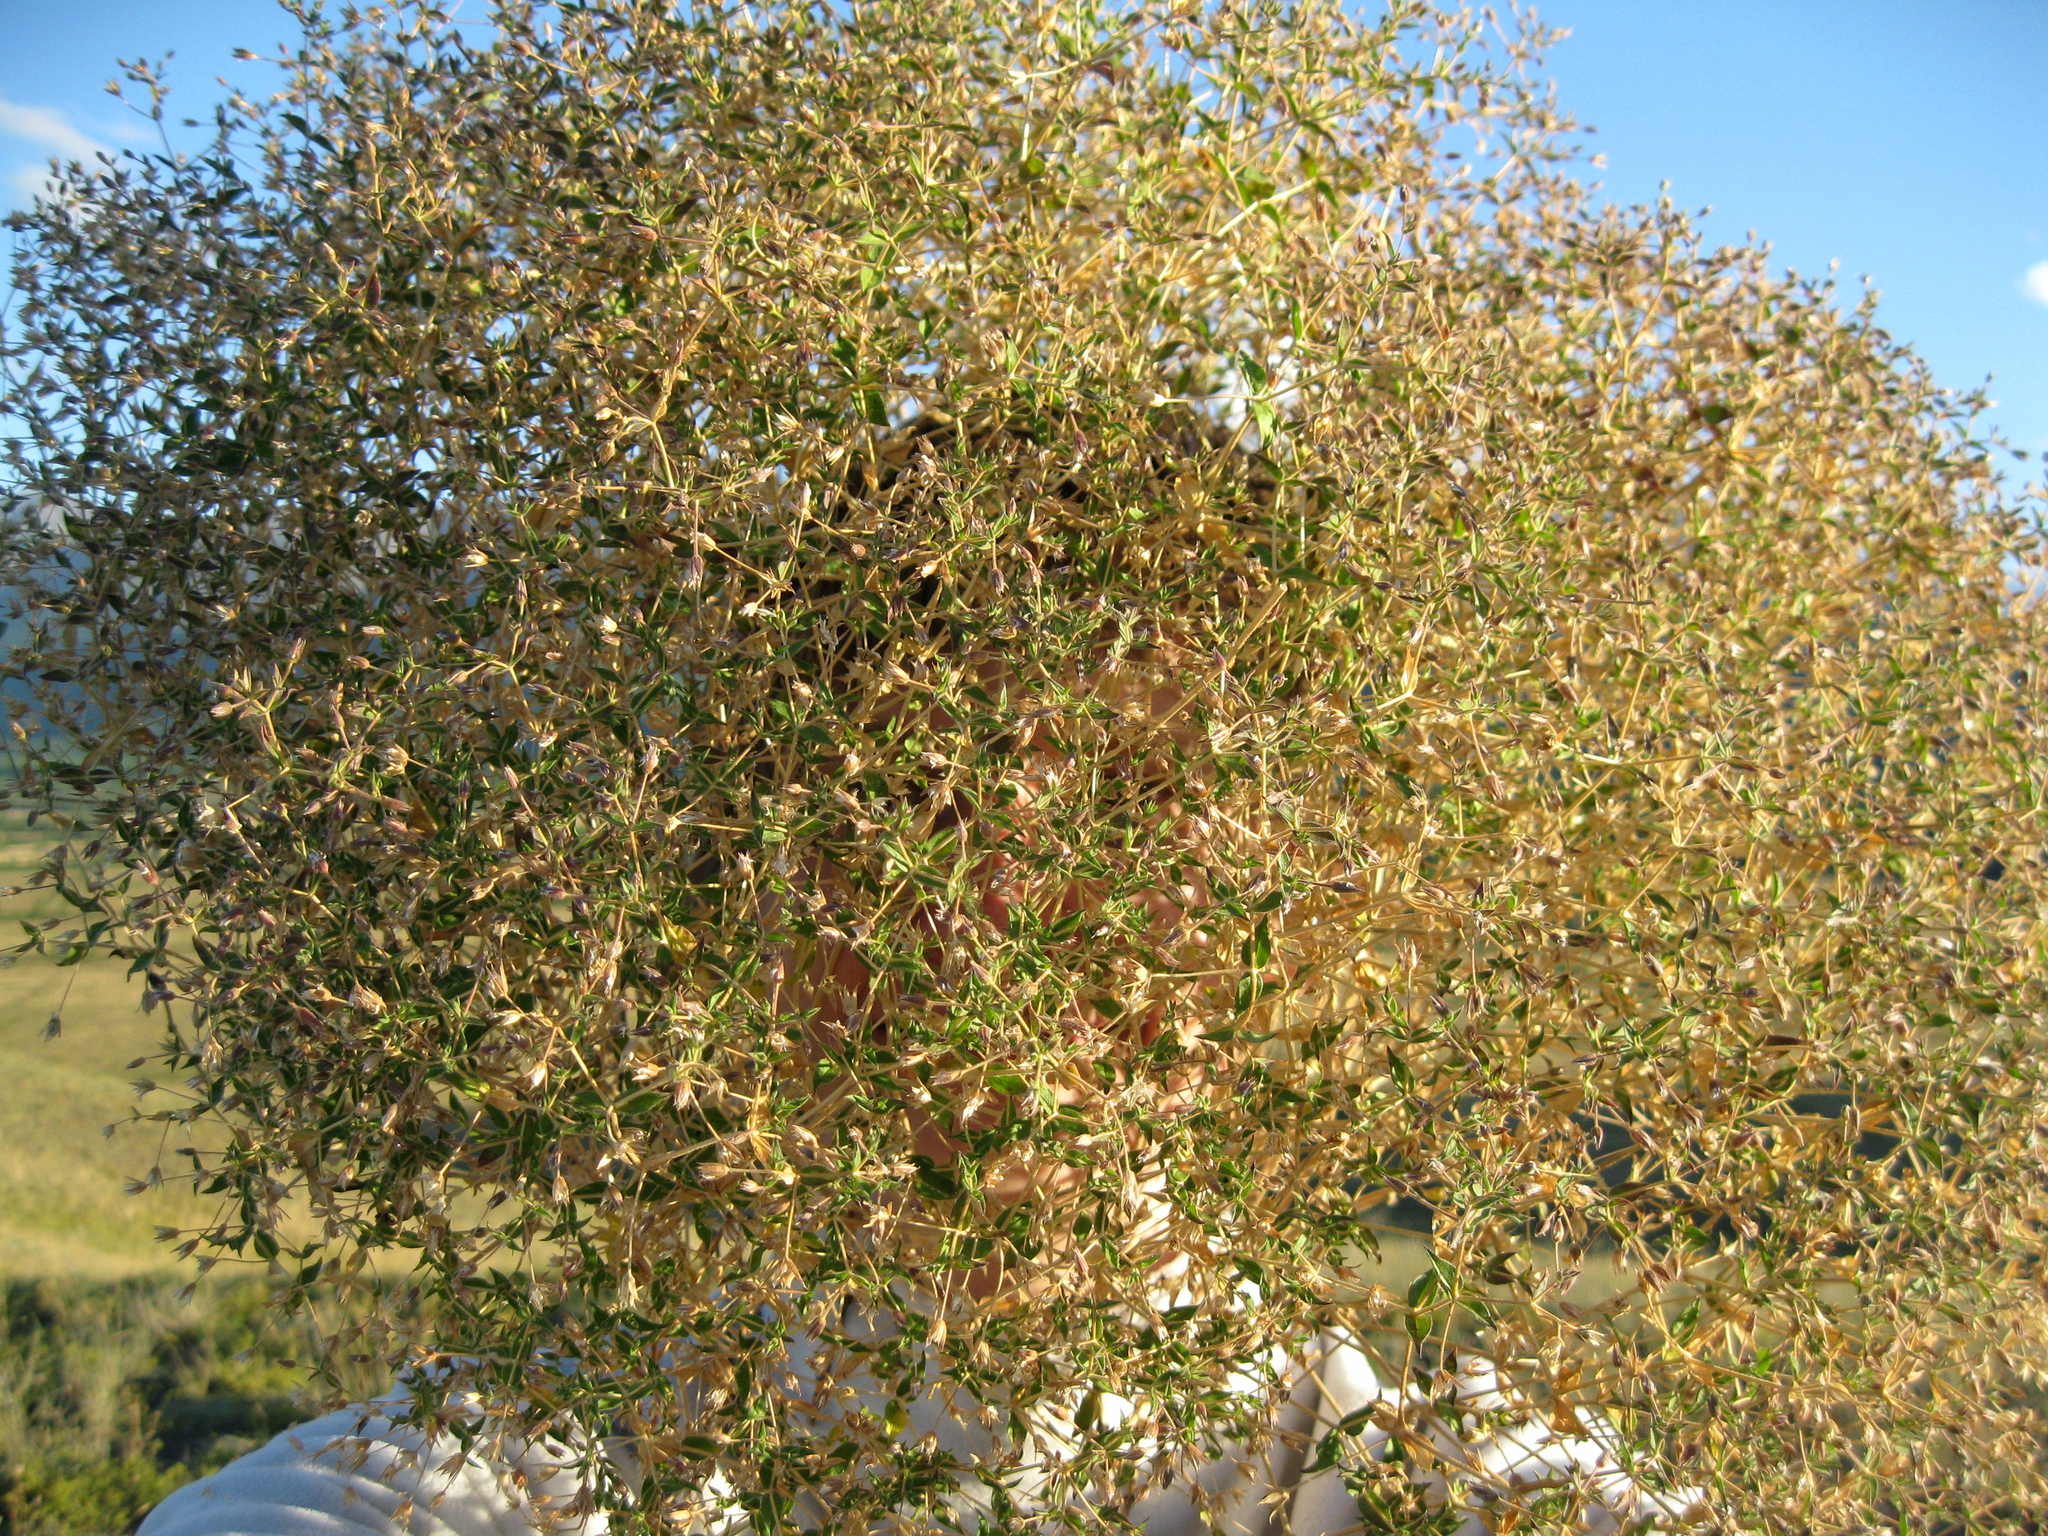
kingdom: Plantae
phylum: Tracheophyta
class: Magnoliopsida
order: Caryophyllales
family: Caryophyllaceae
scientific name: Caryophyllaceae
